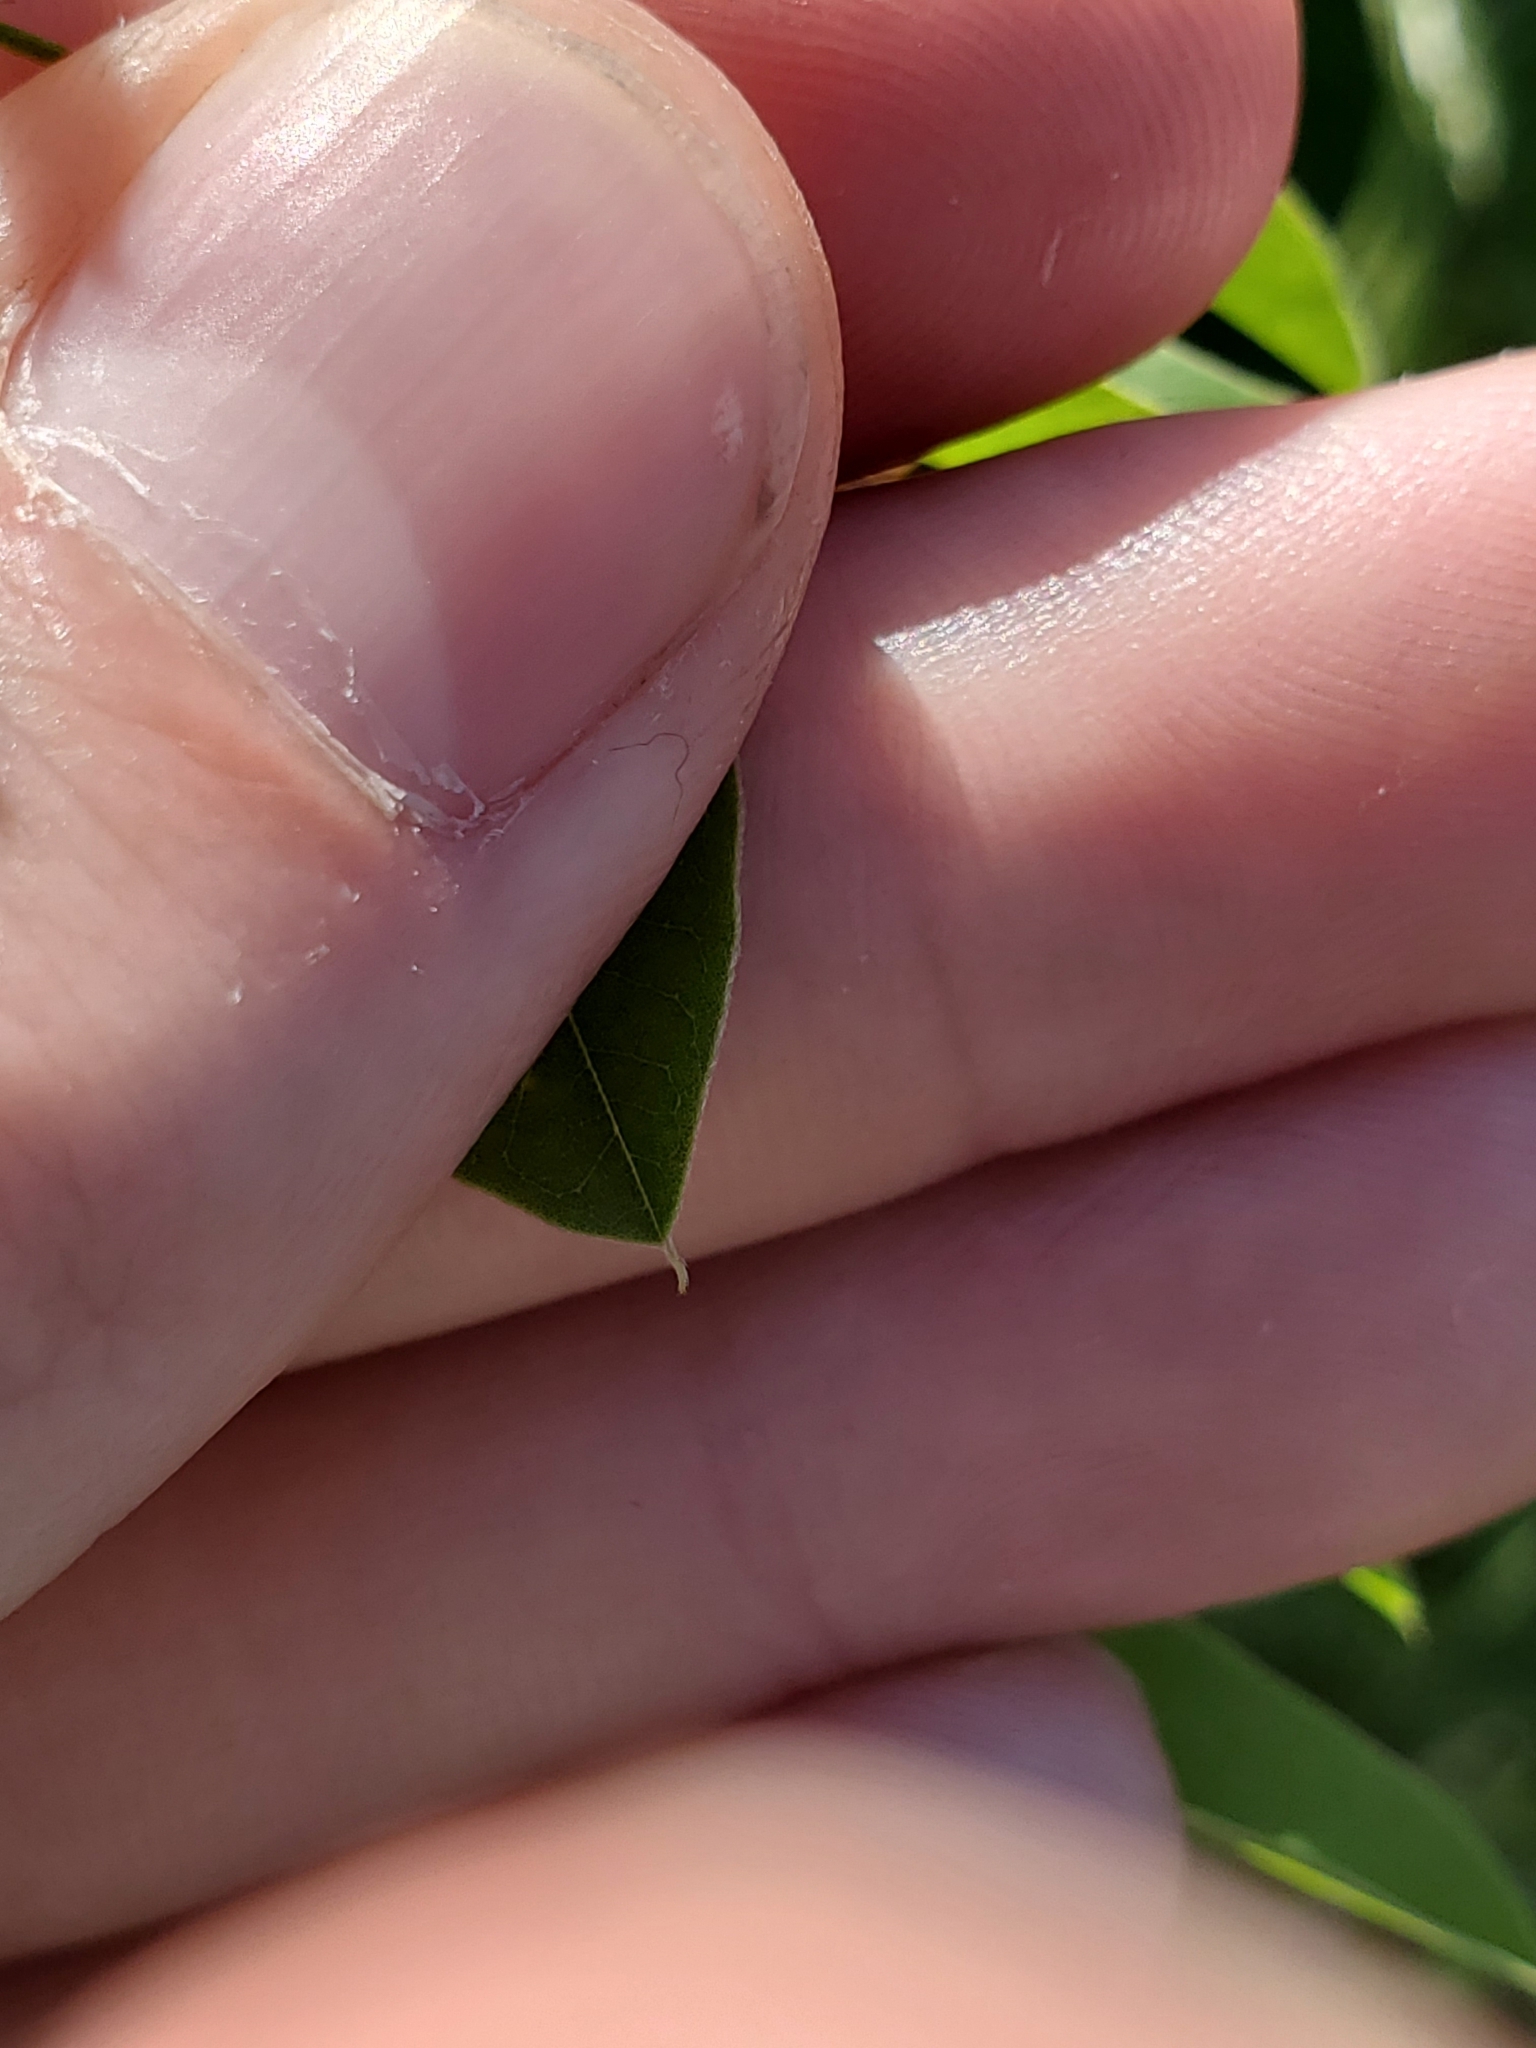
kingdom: Plantae
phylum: Tracheophyta
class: Magnoliopsida
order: Fabales
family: Fabaceae
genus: Amorpha
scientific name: Amorpha fruticosa
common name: False indigo
